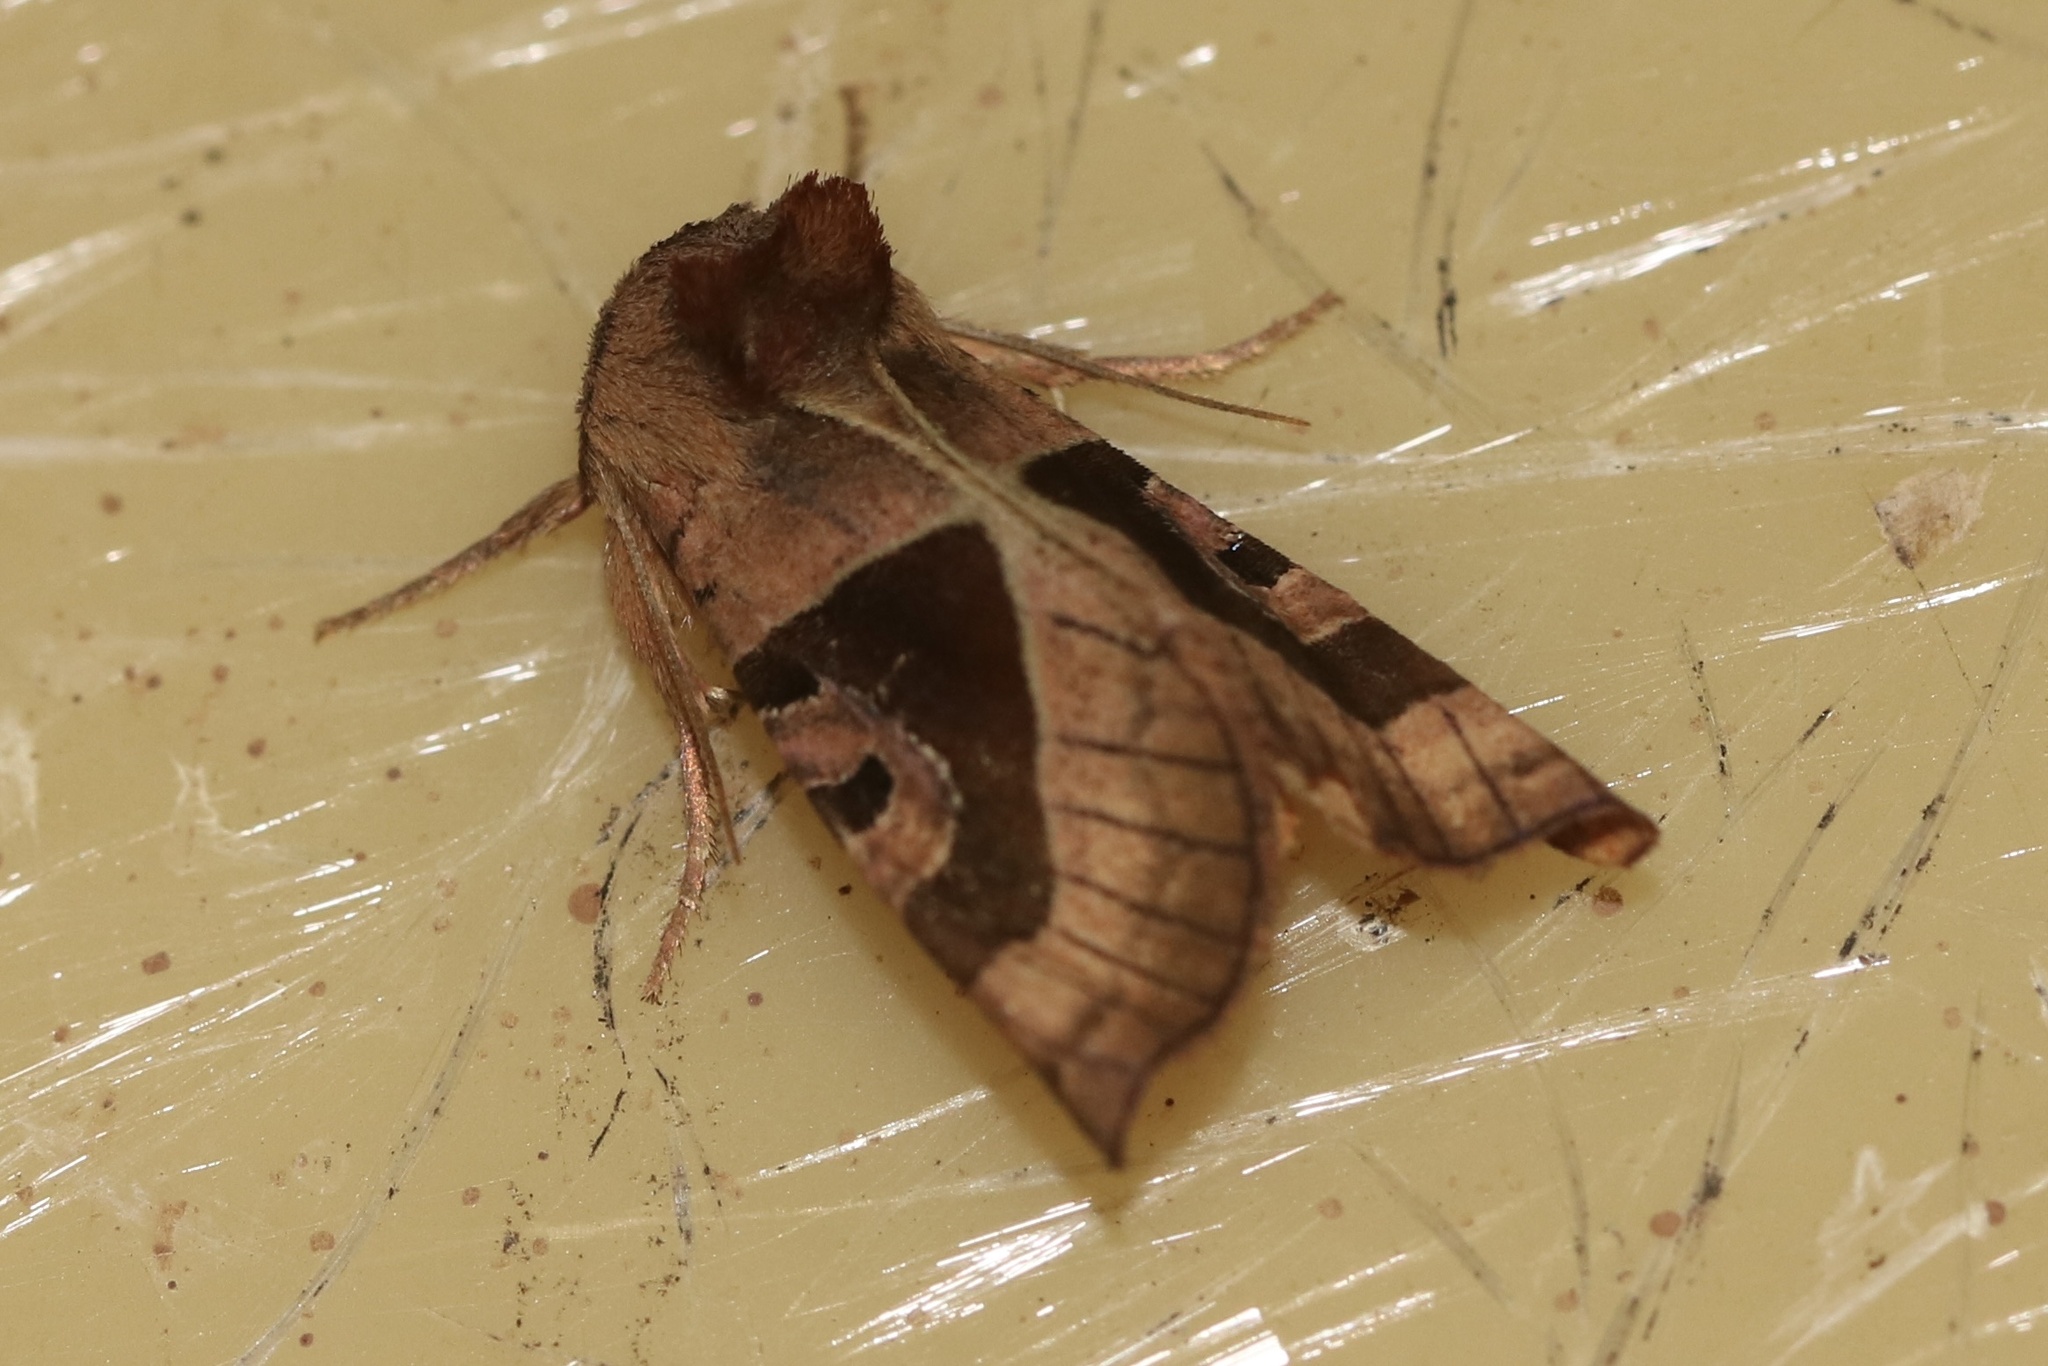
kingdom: Animalia
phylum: Arthropoda
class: Insecta
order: Lepidoptera
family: Noctuidae
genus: Conservula
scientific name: Conservula anodonta
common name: Sharp angle shades
